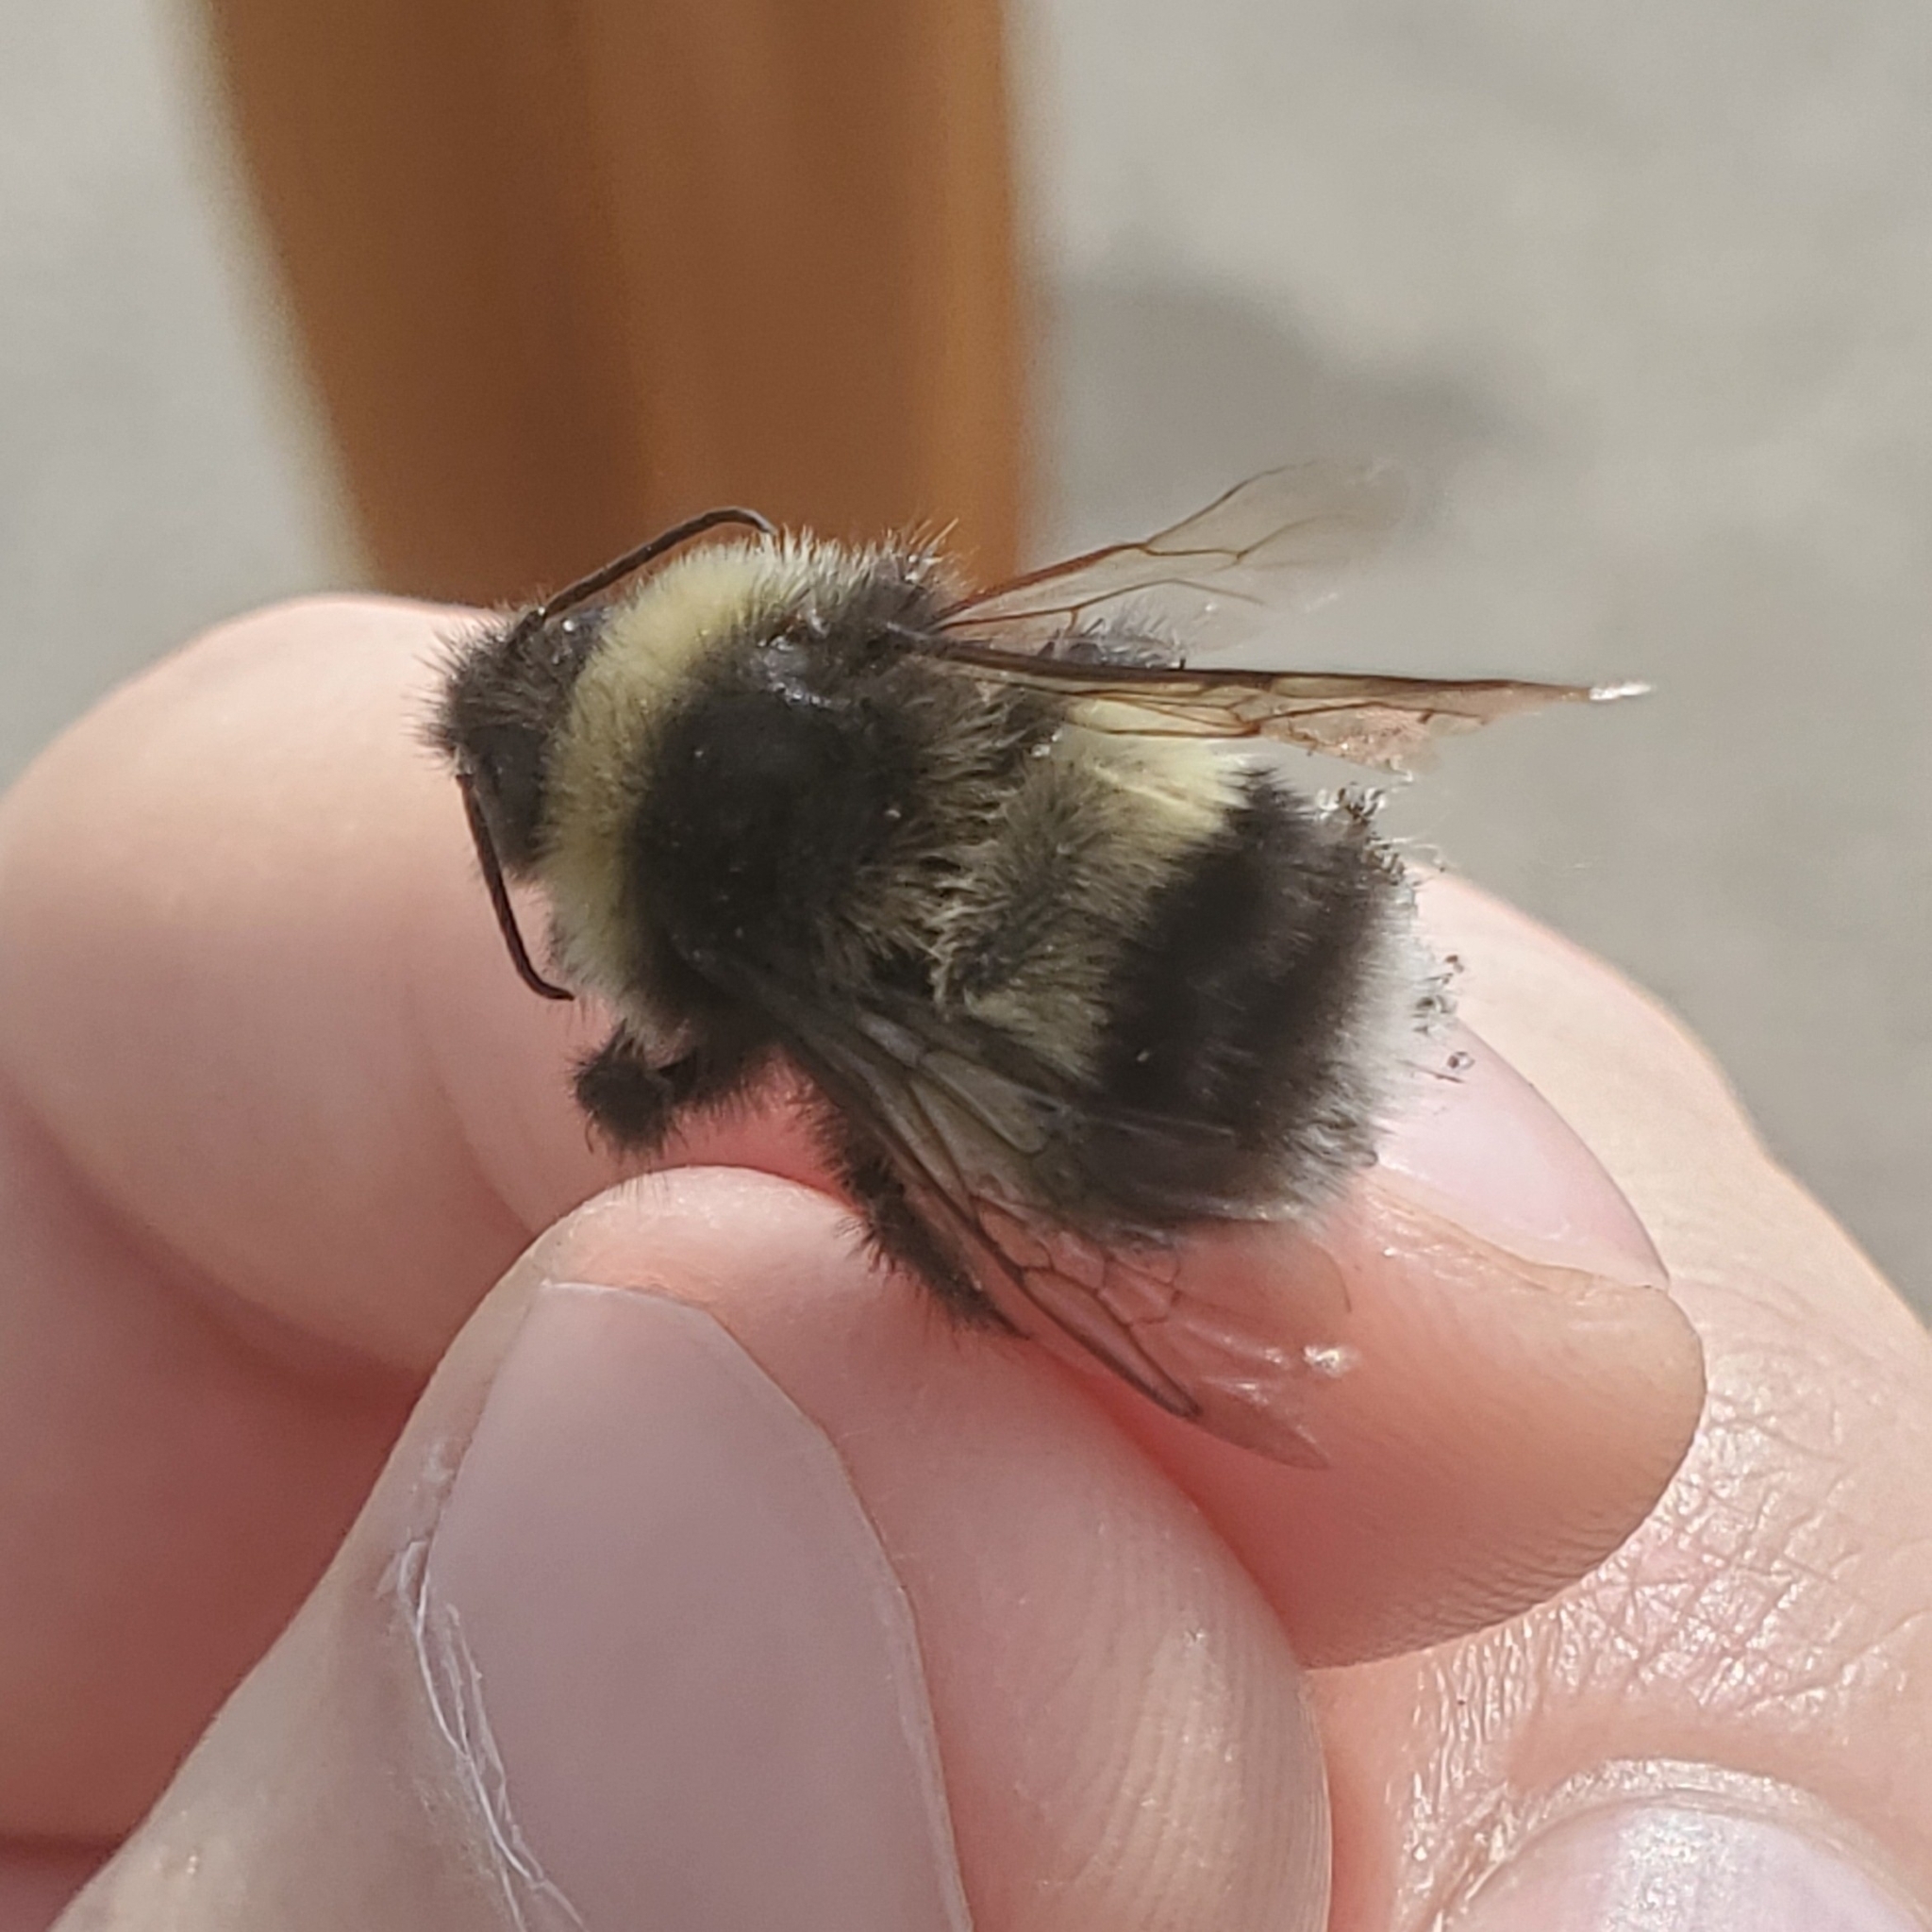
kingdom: Animalia
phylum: Arthropoda
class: Insecta
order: Hymenoptera
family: Apidae
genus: Bombus
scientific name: Bombus cryptarum
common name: Cryptic bumblebee
